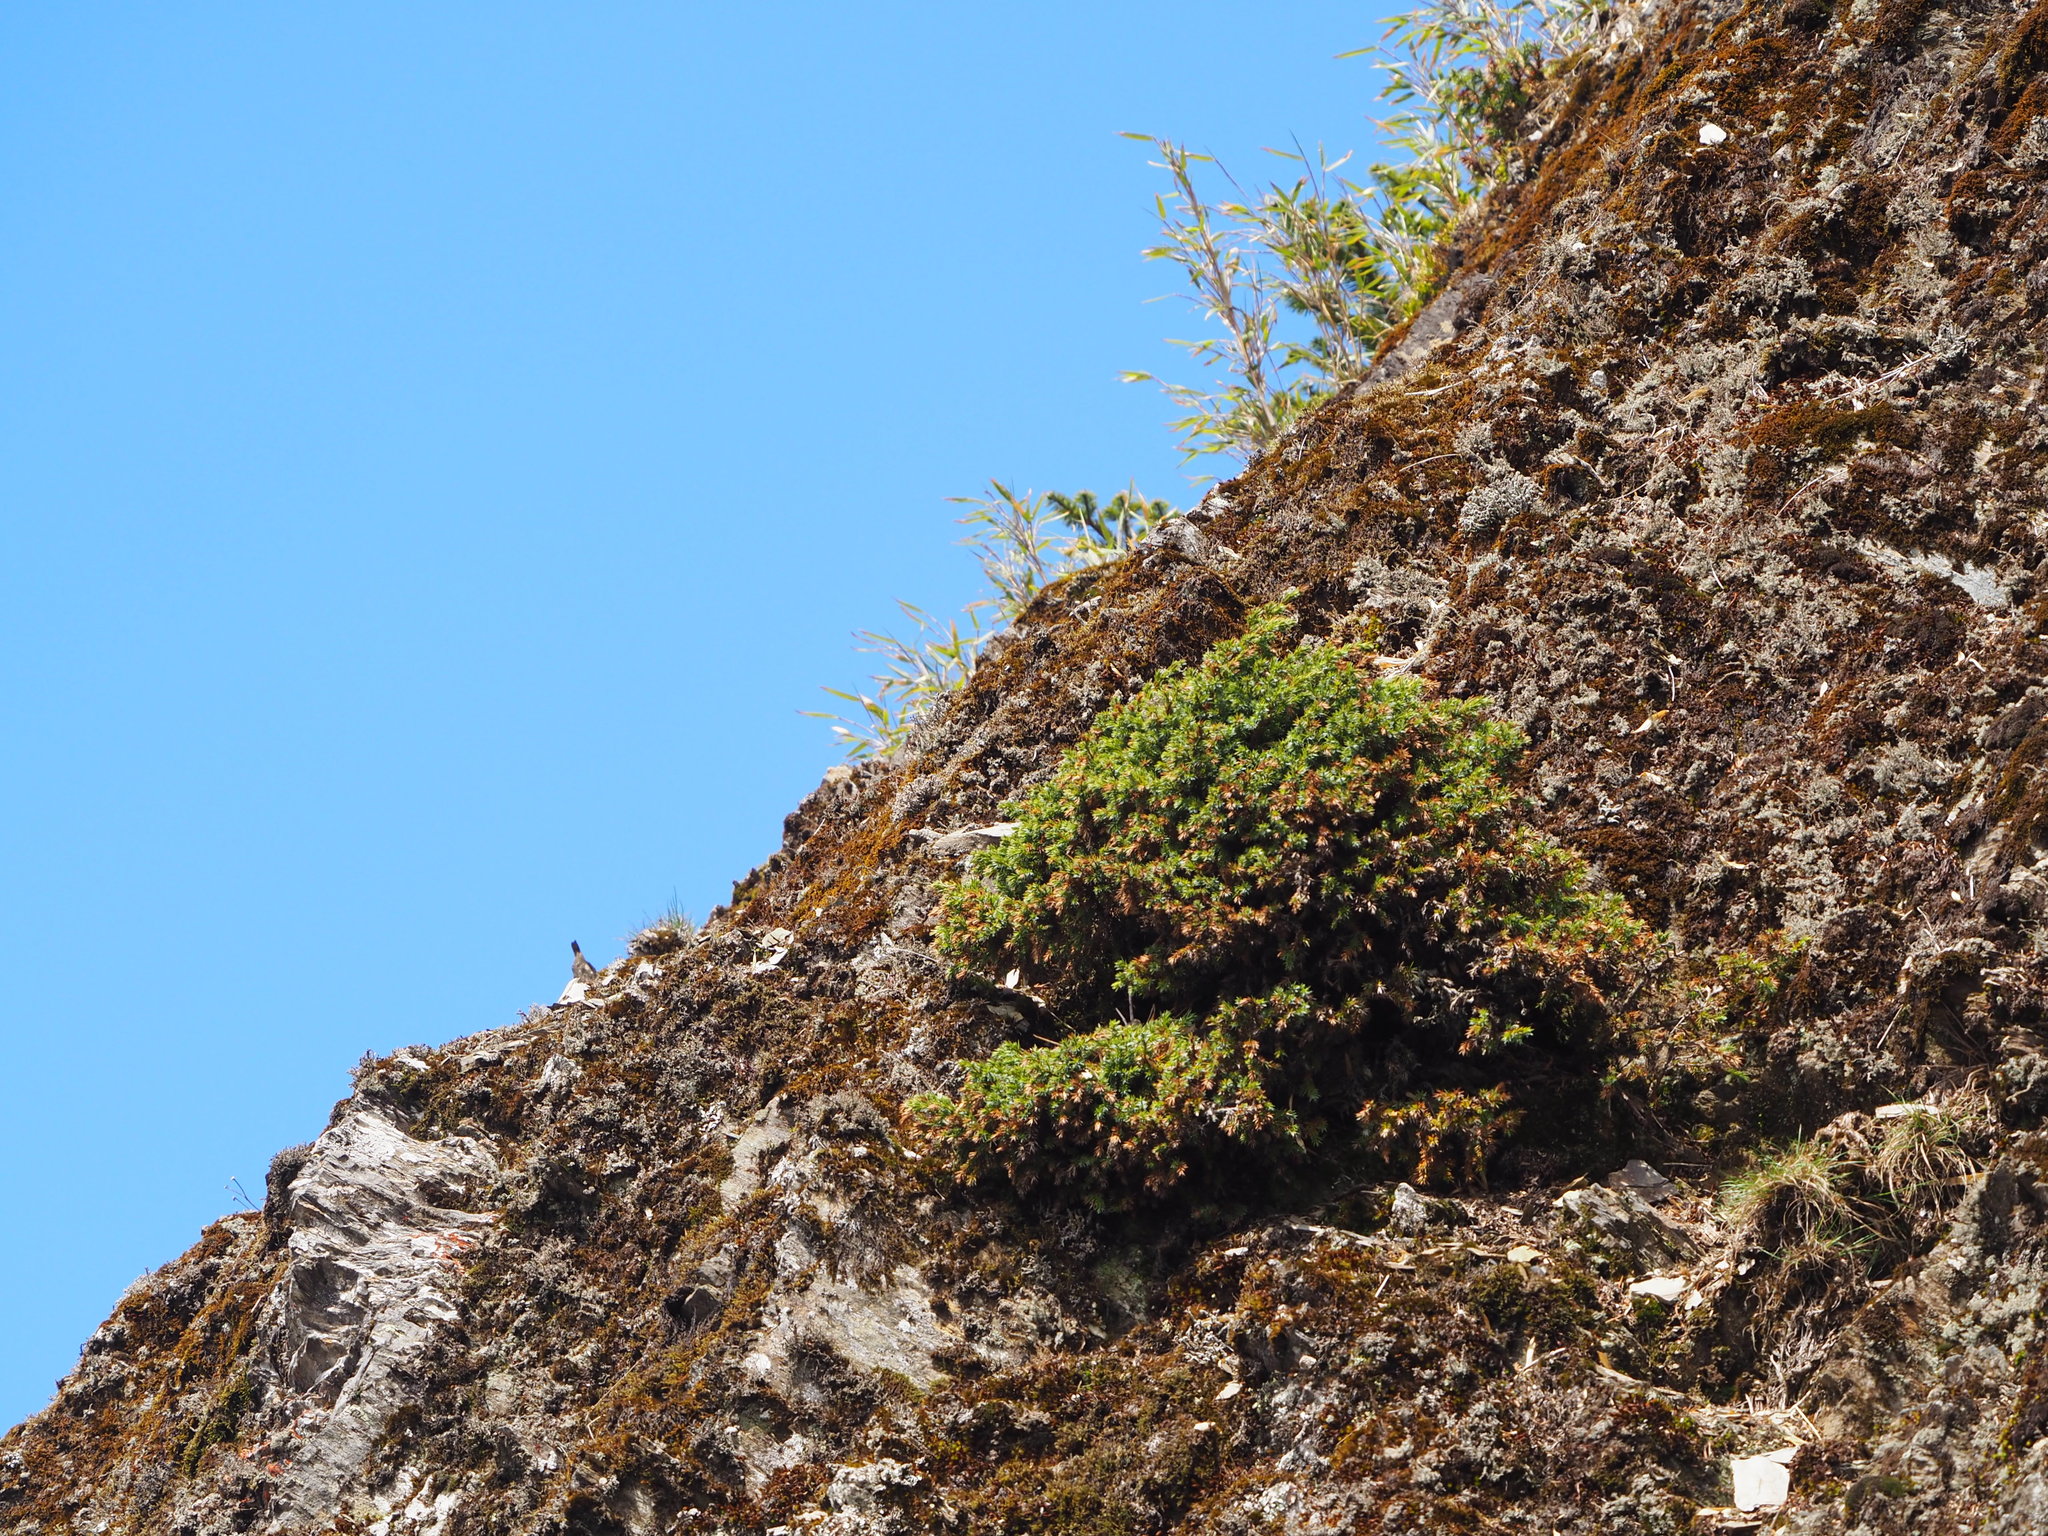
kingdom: Plantae
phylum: Tracheophyta
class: Pinopsida
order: Pinales
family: Cupressaceae
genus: Juniperus
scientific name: Juniperus formosana
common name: Formosan juniper
